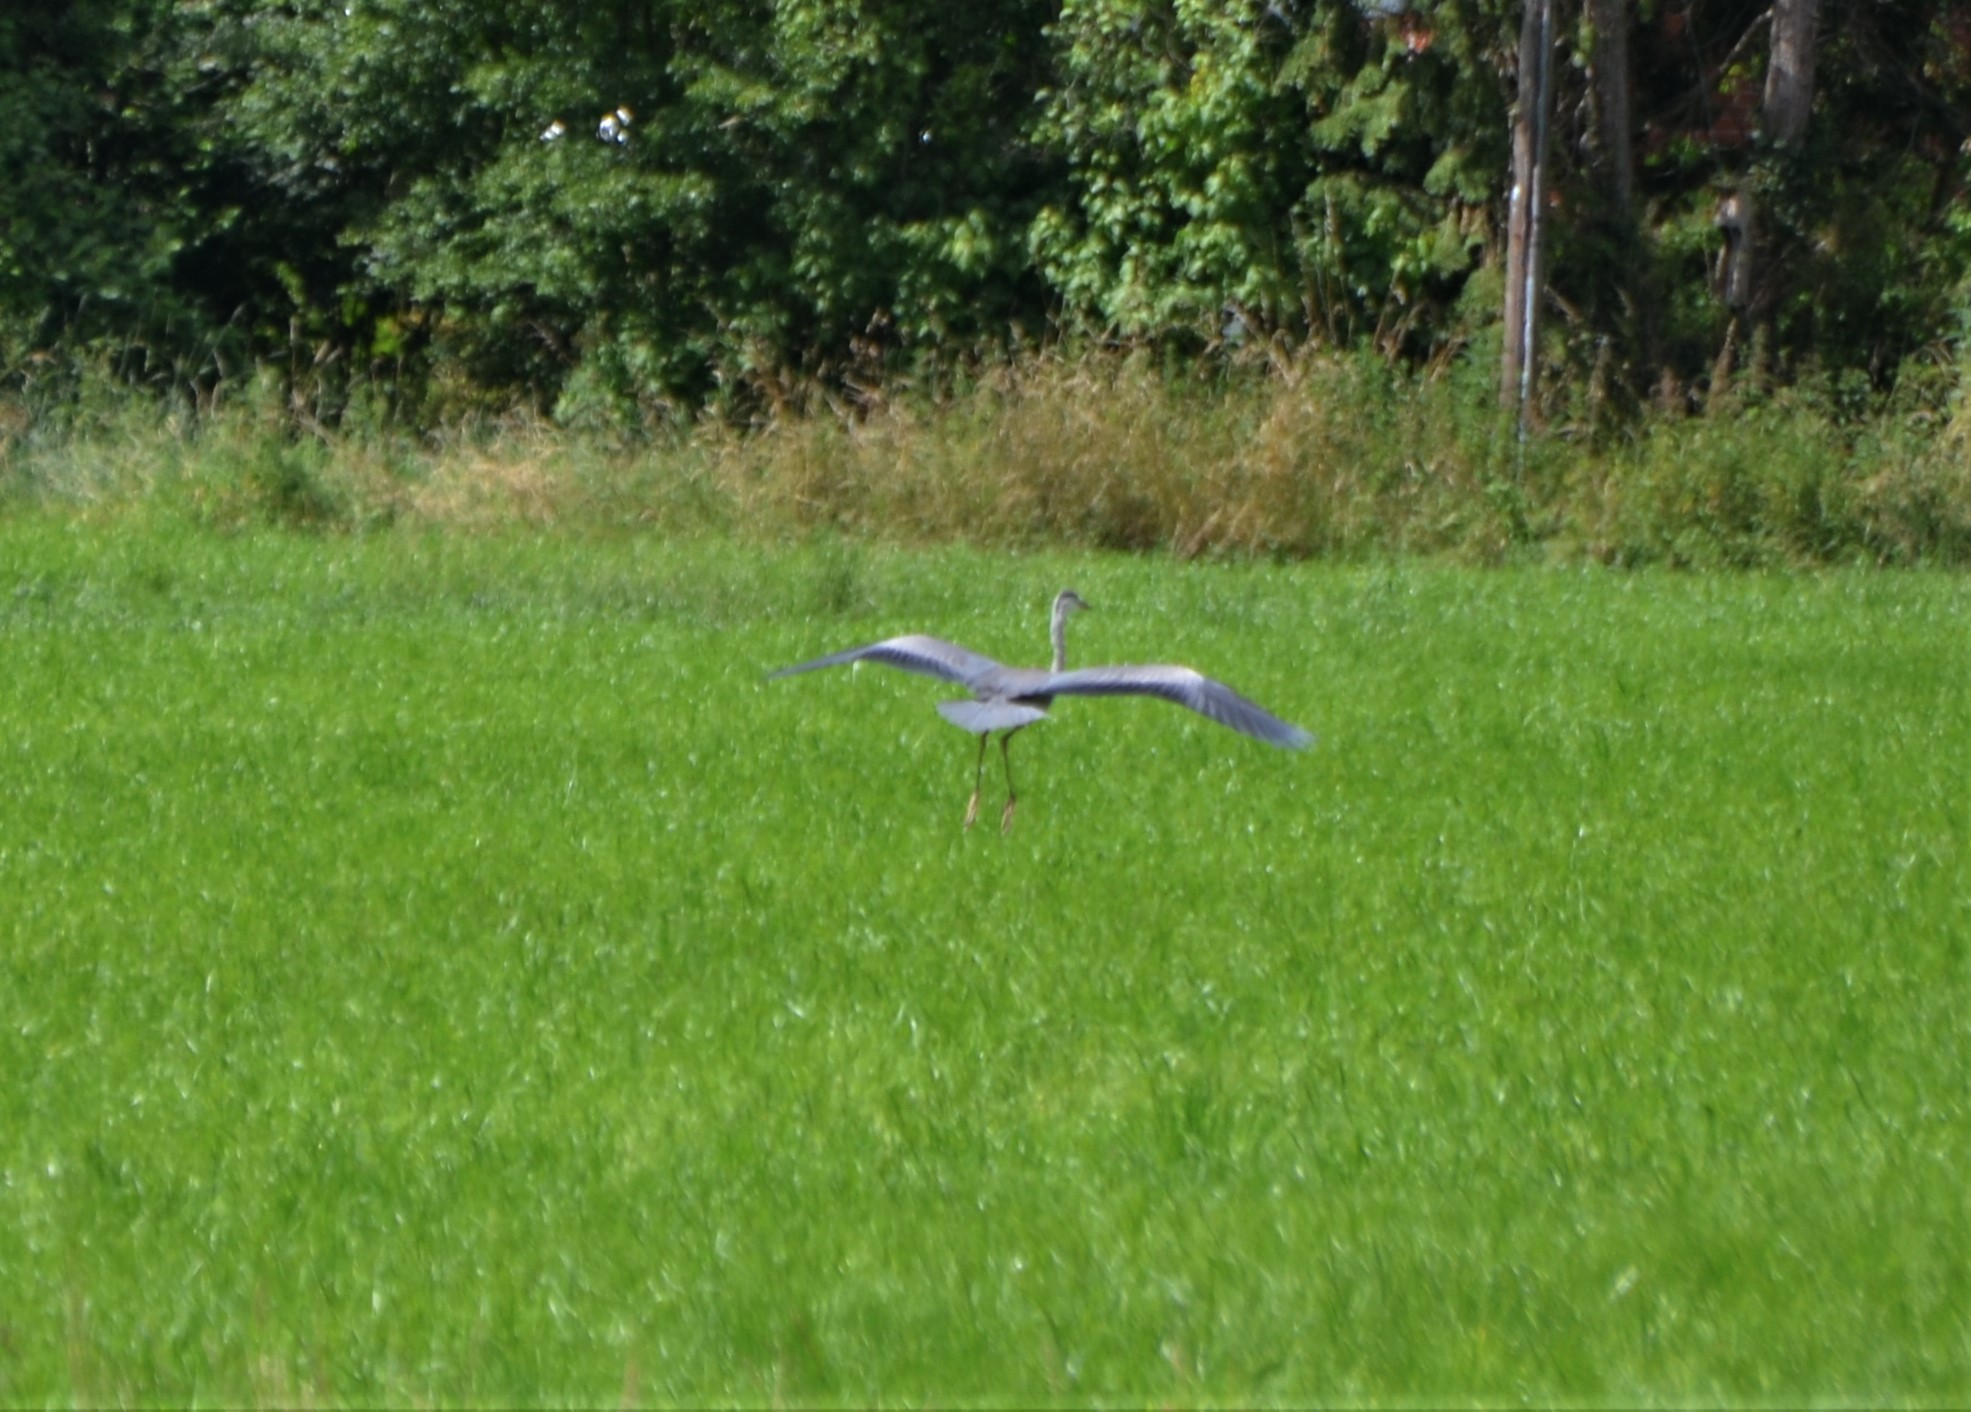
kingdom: Animalia
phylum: Chordata
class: Aves
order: Pelecaniformes
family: Ardeidae
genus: Ardea
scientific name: Ardea cinerea
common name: Grey heron
